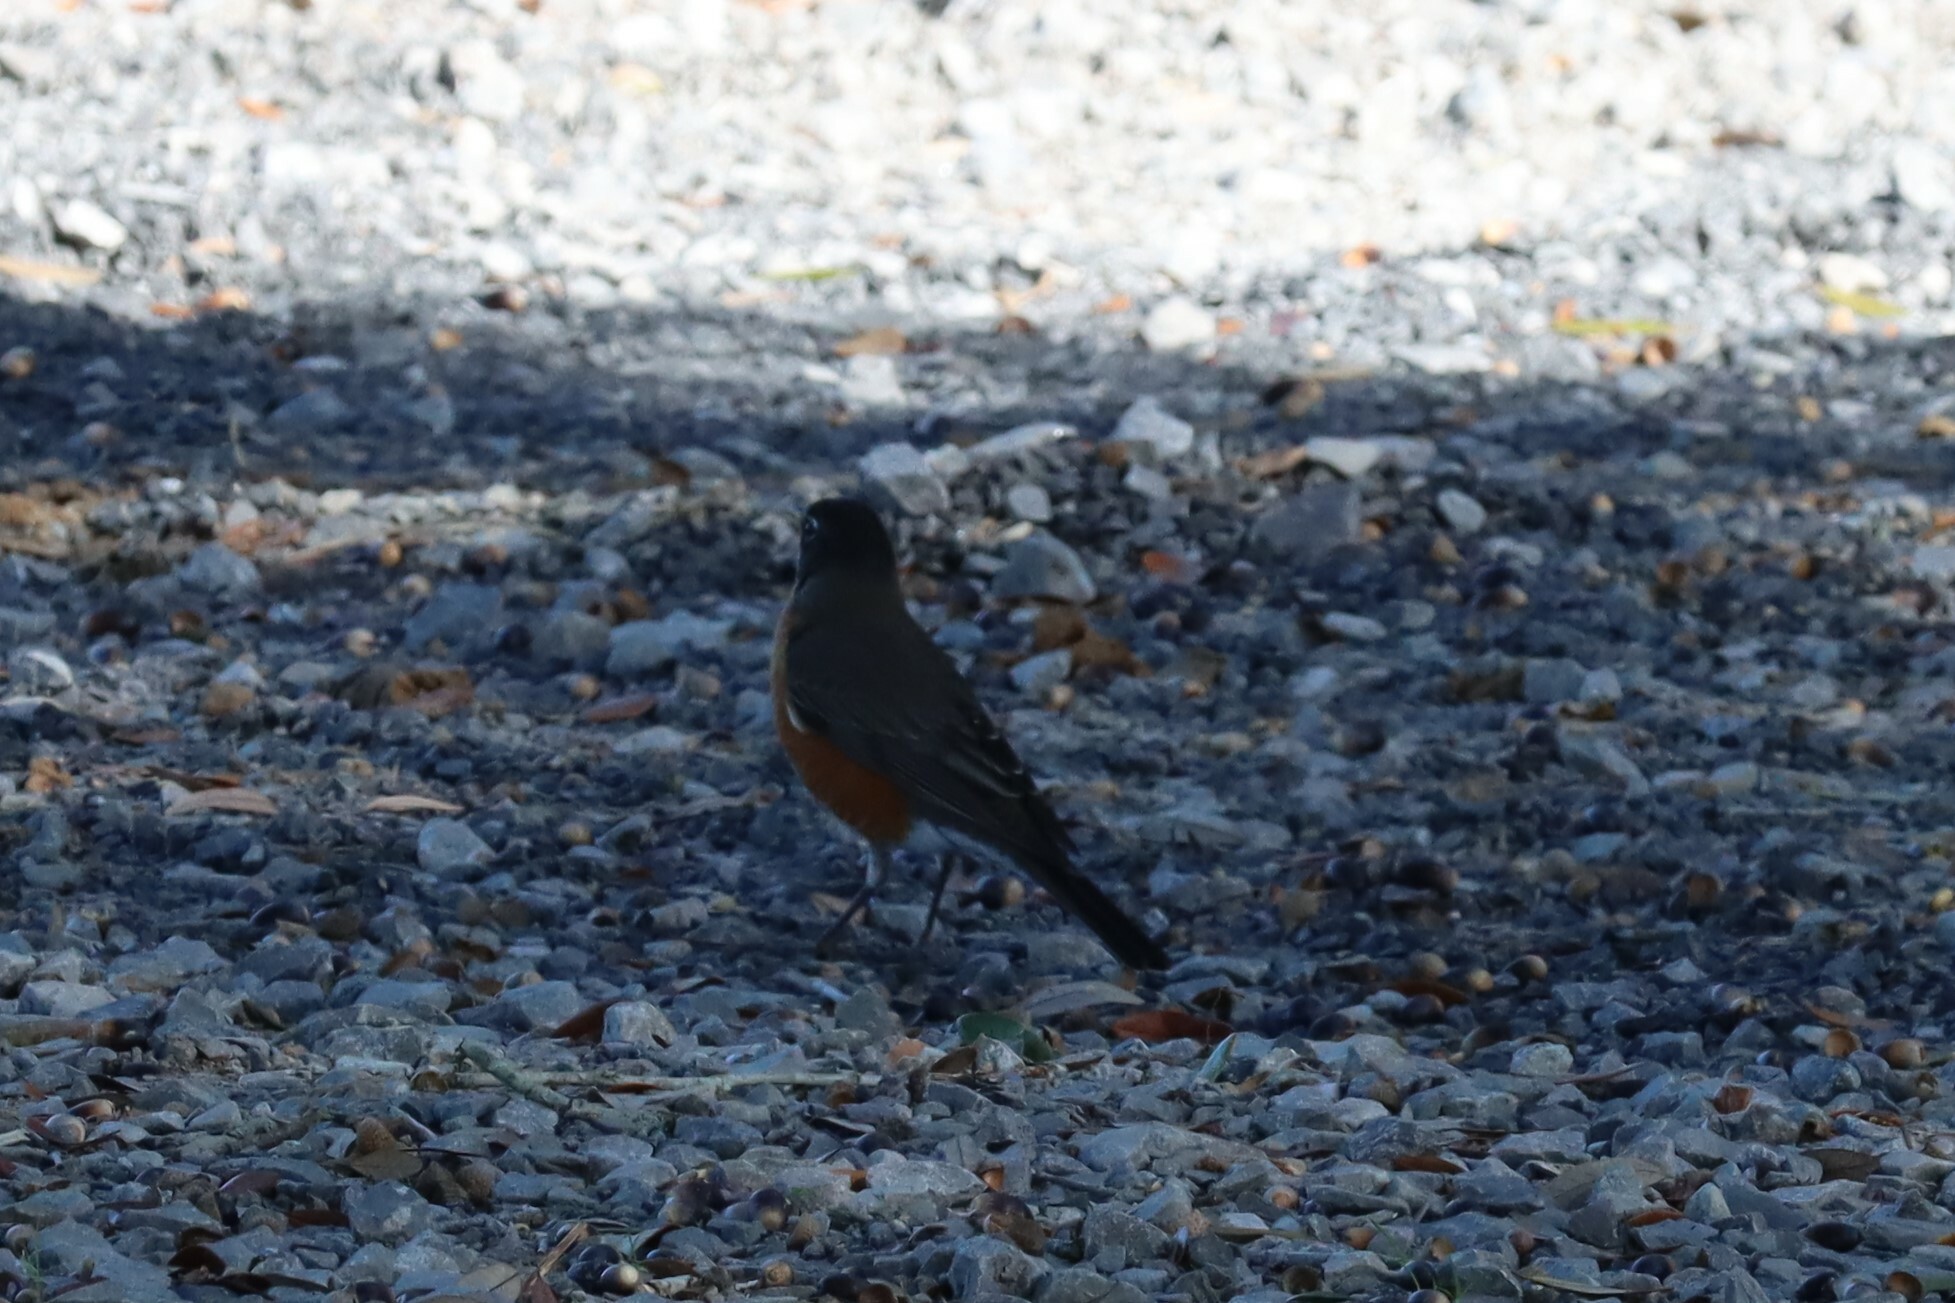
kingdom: Animalia
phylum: Chordata
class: Aves
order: Passeriformes
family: Turdidae
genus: Turdus
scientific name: Turdus migratorius
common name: American robin
